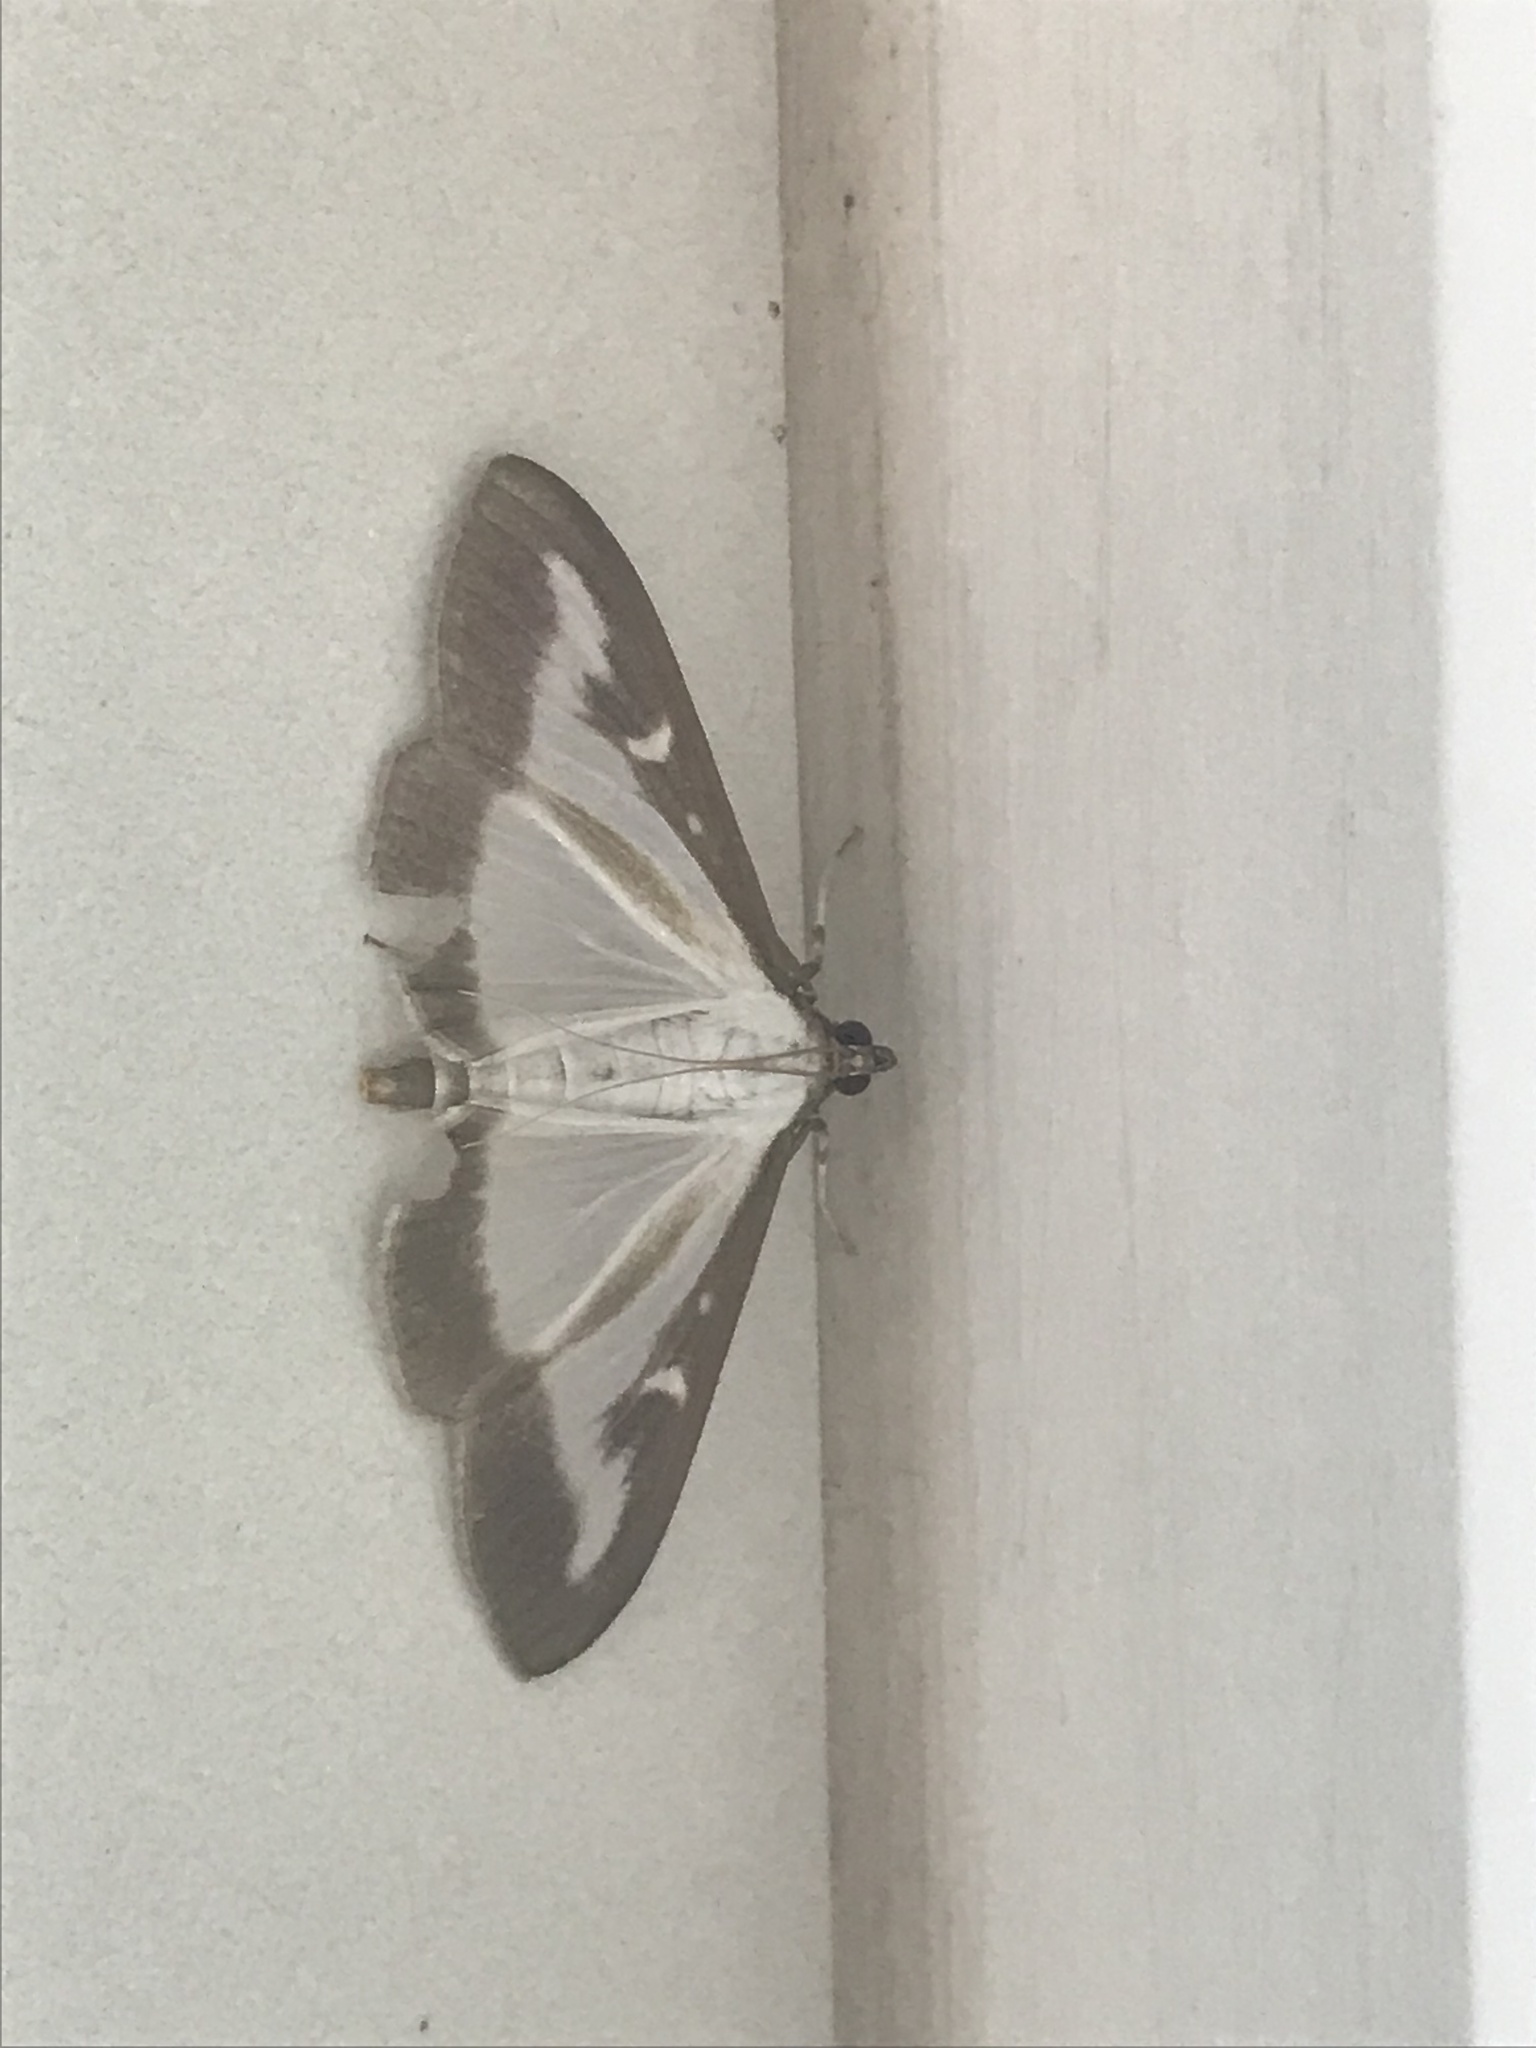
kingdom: Animalia
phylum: Arthropoda
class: Insecta
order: Lepidoptera
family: Crambidae
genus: Cydalima
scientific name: Cydalima perspectalis
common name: Box tree moth
